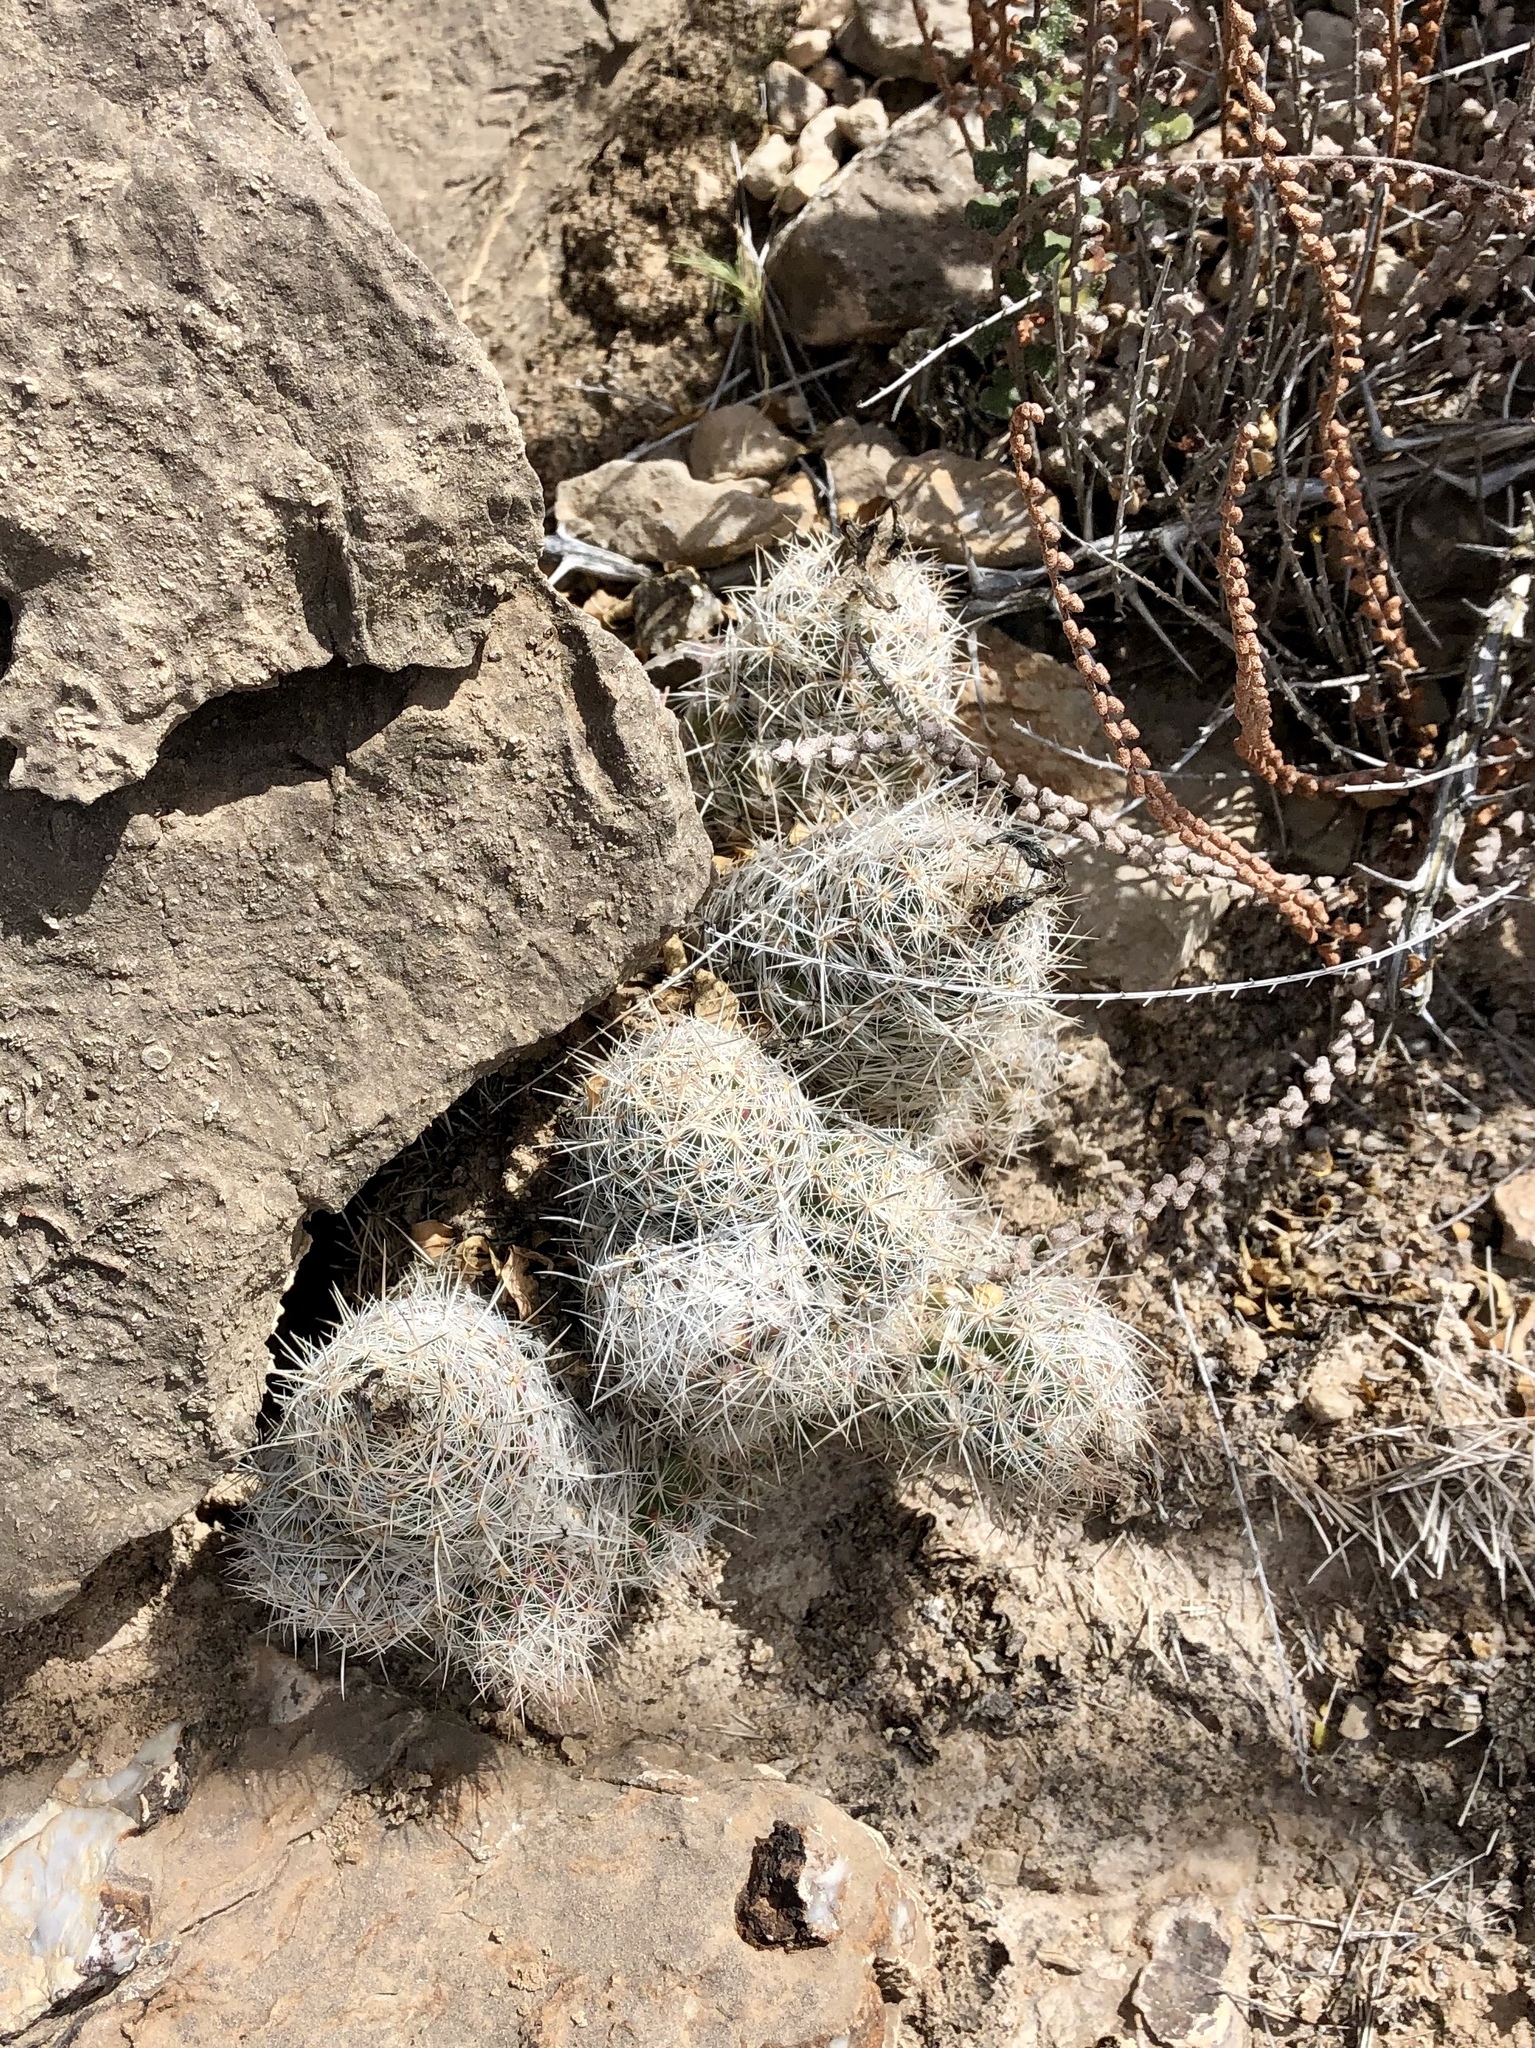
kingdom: Plantae
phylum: Tracheophyta
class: Magnoliopsida
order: Caryophyllales
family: Cactaceae
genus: Pelecyphora
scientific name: Pelecyphora tuberculosa
